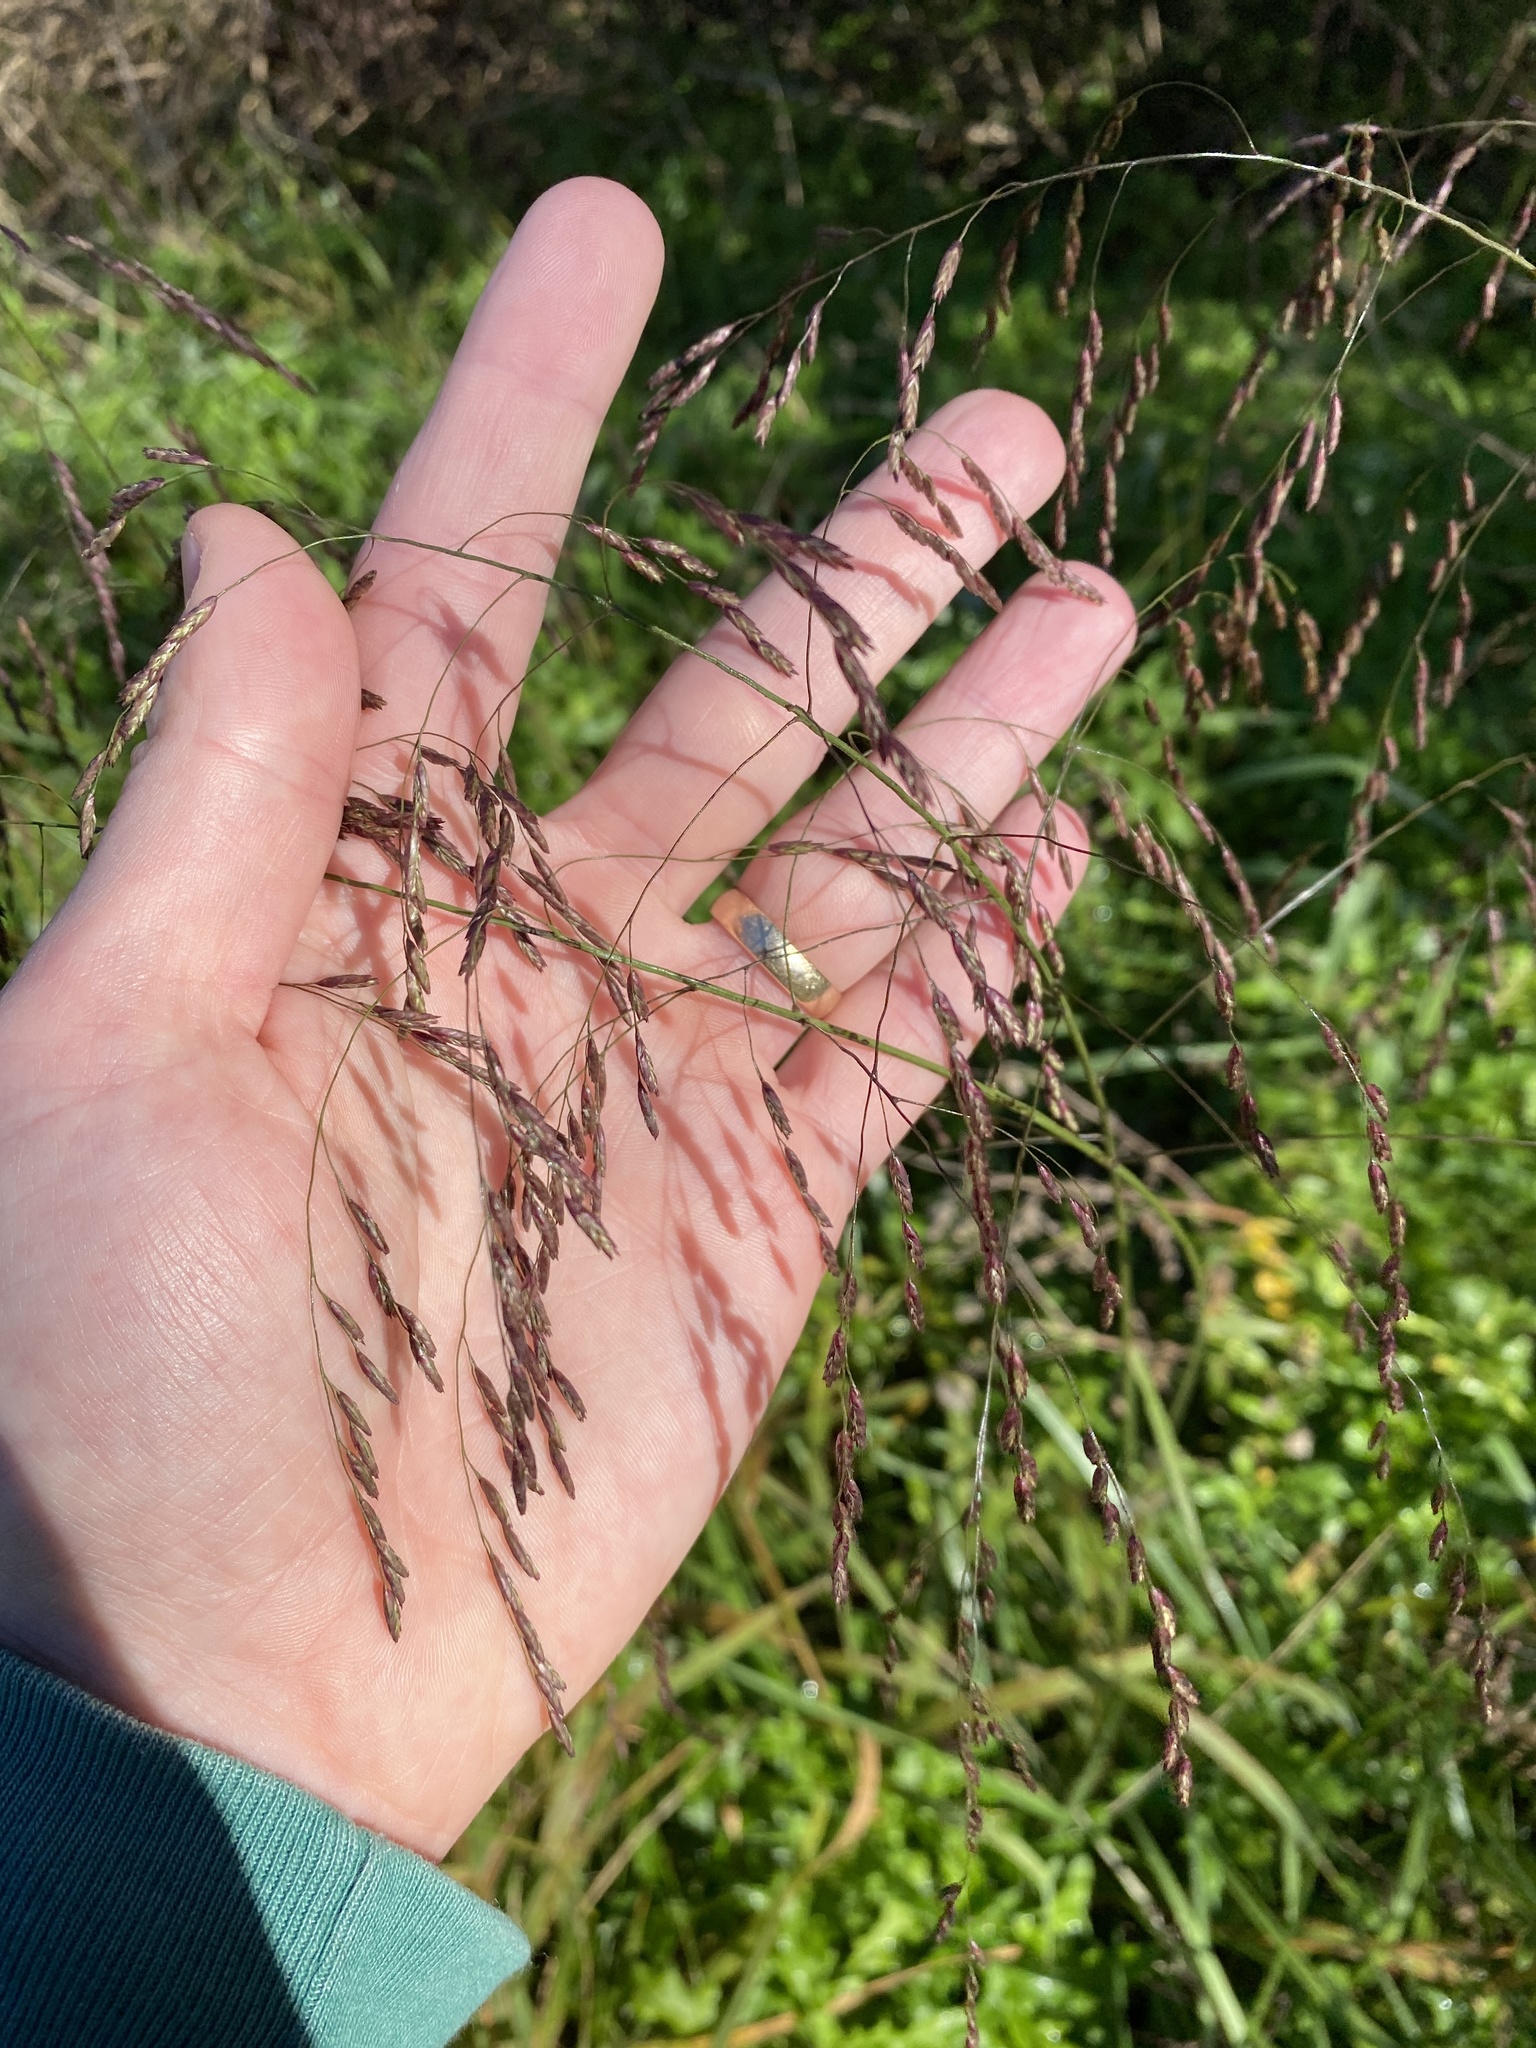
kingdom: Plantae
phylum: Tracheophyta
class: Liliopsida
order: Poales
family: Poaceae
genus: Tridens
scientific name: Tridens flavus
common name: Purpletop
